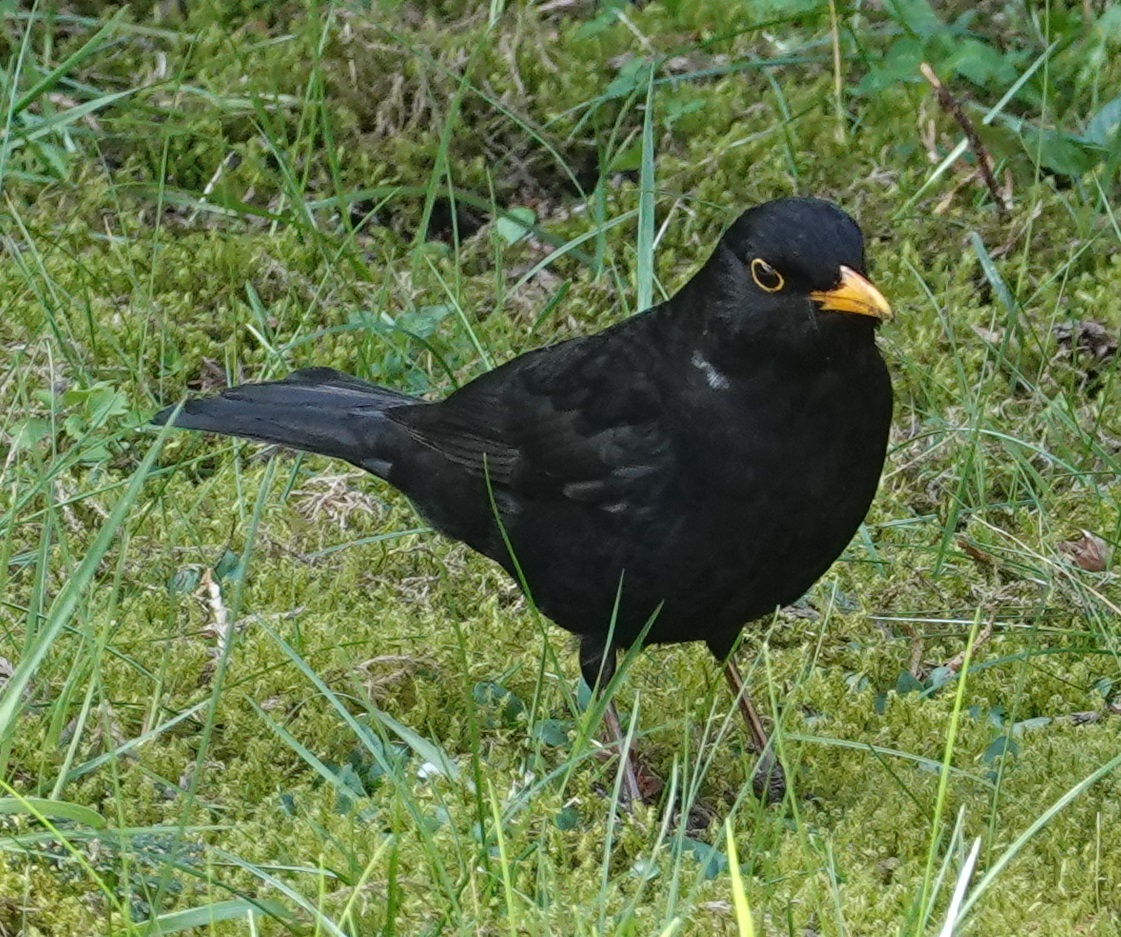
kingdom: Animalia
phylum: Chordata
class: Aves
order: Passeriformes
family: Turdidae
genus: Turdus
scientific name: Turdus merula
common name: Common blackbird
